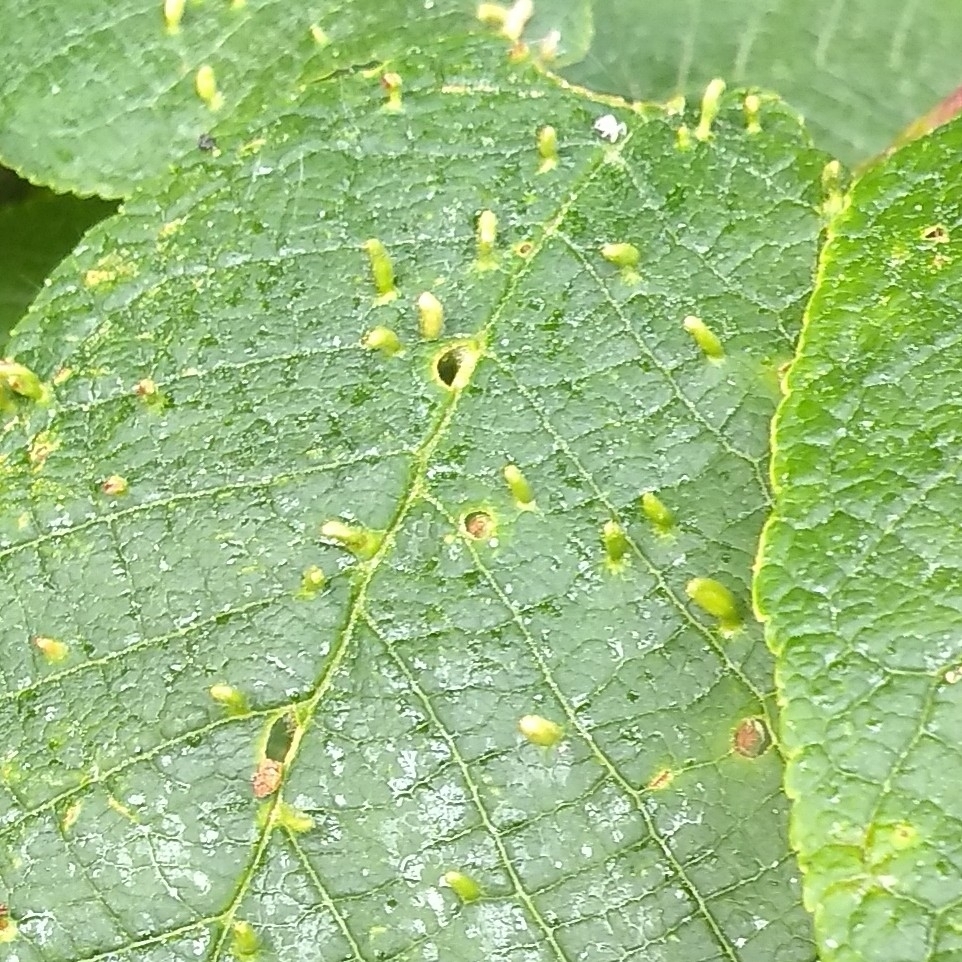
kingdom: Animalia
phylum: Arthropoda
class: Arachnida
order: Trombidiformes
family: Eriophyidae
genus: Phyllocoptes
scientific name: Phyllocoptes eupadi
